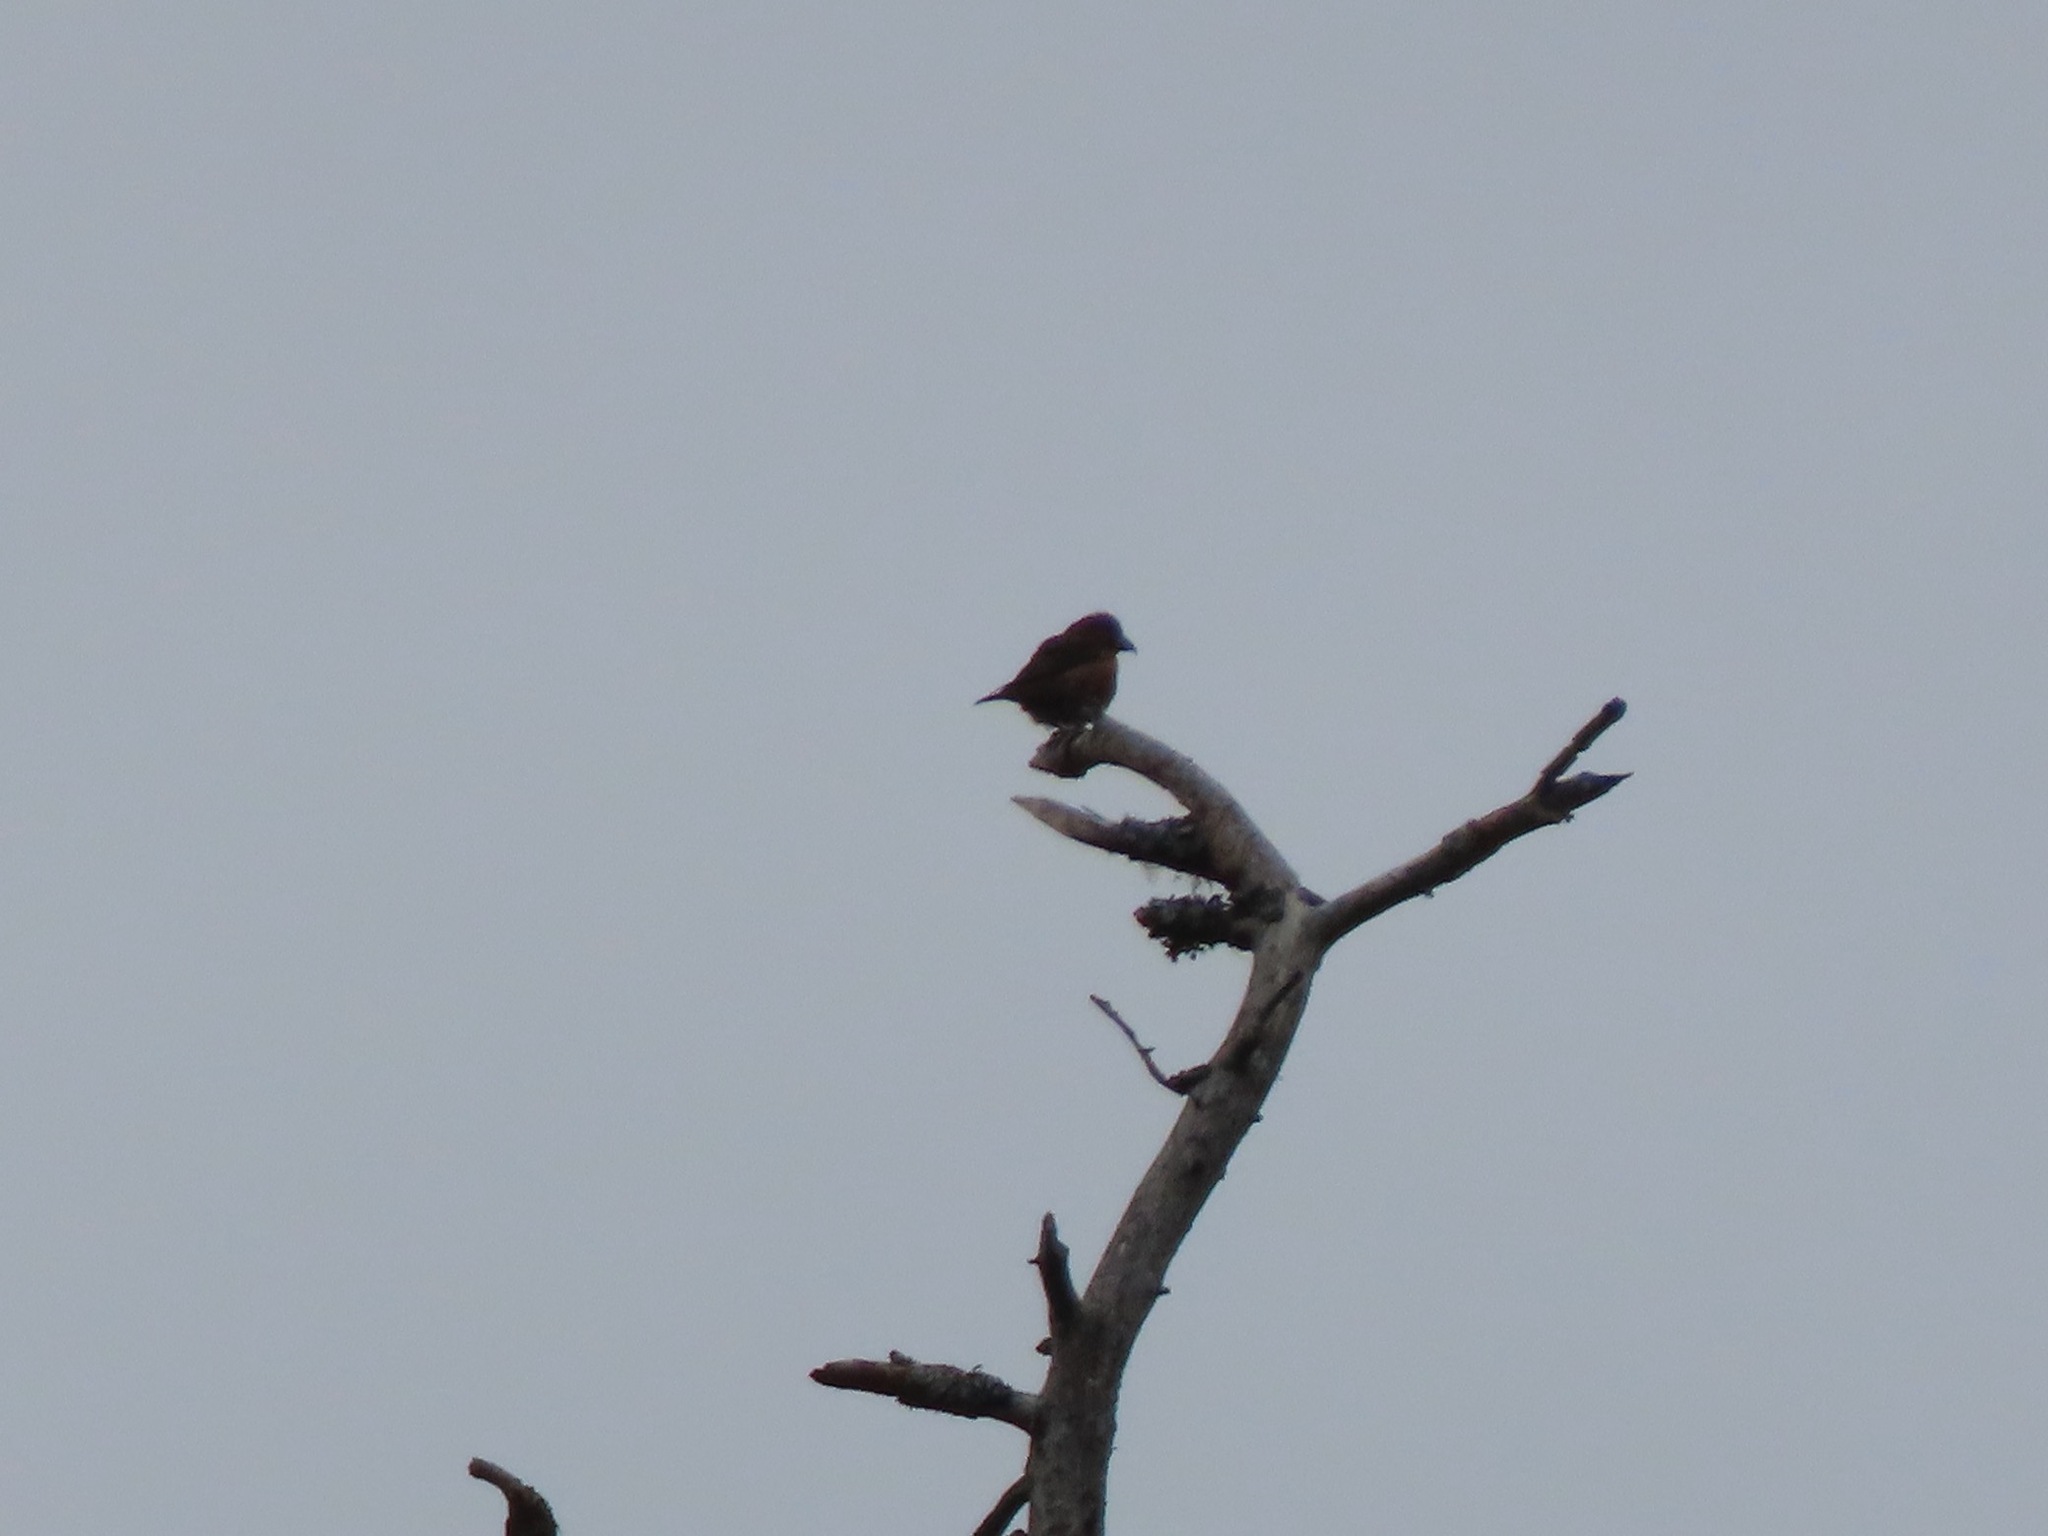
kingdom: Animalia
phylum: Chordata
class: Aves
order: Passeriformes
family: Fringillidae
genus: Loxia
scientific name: Loxia curvirostra
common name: Red crossbill
